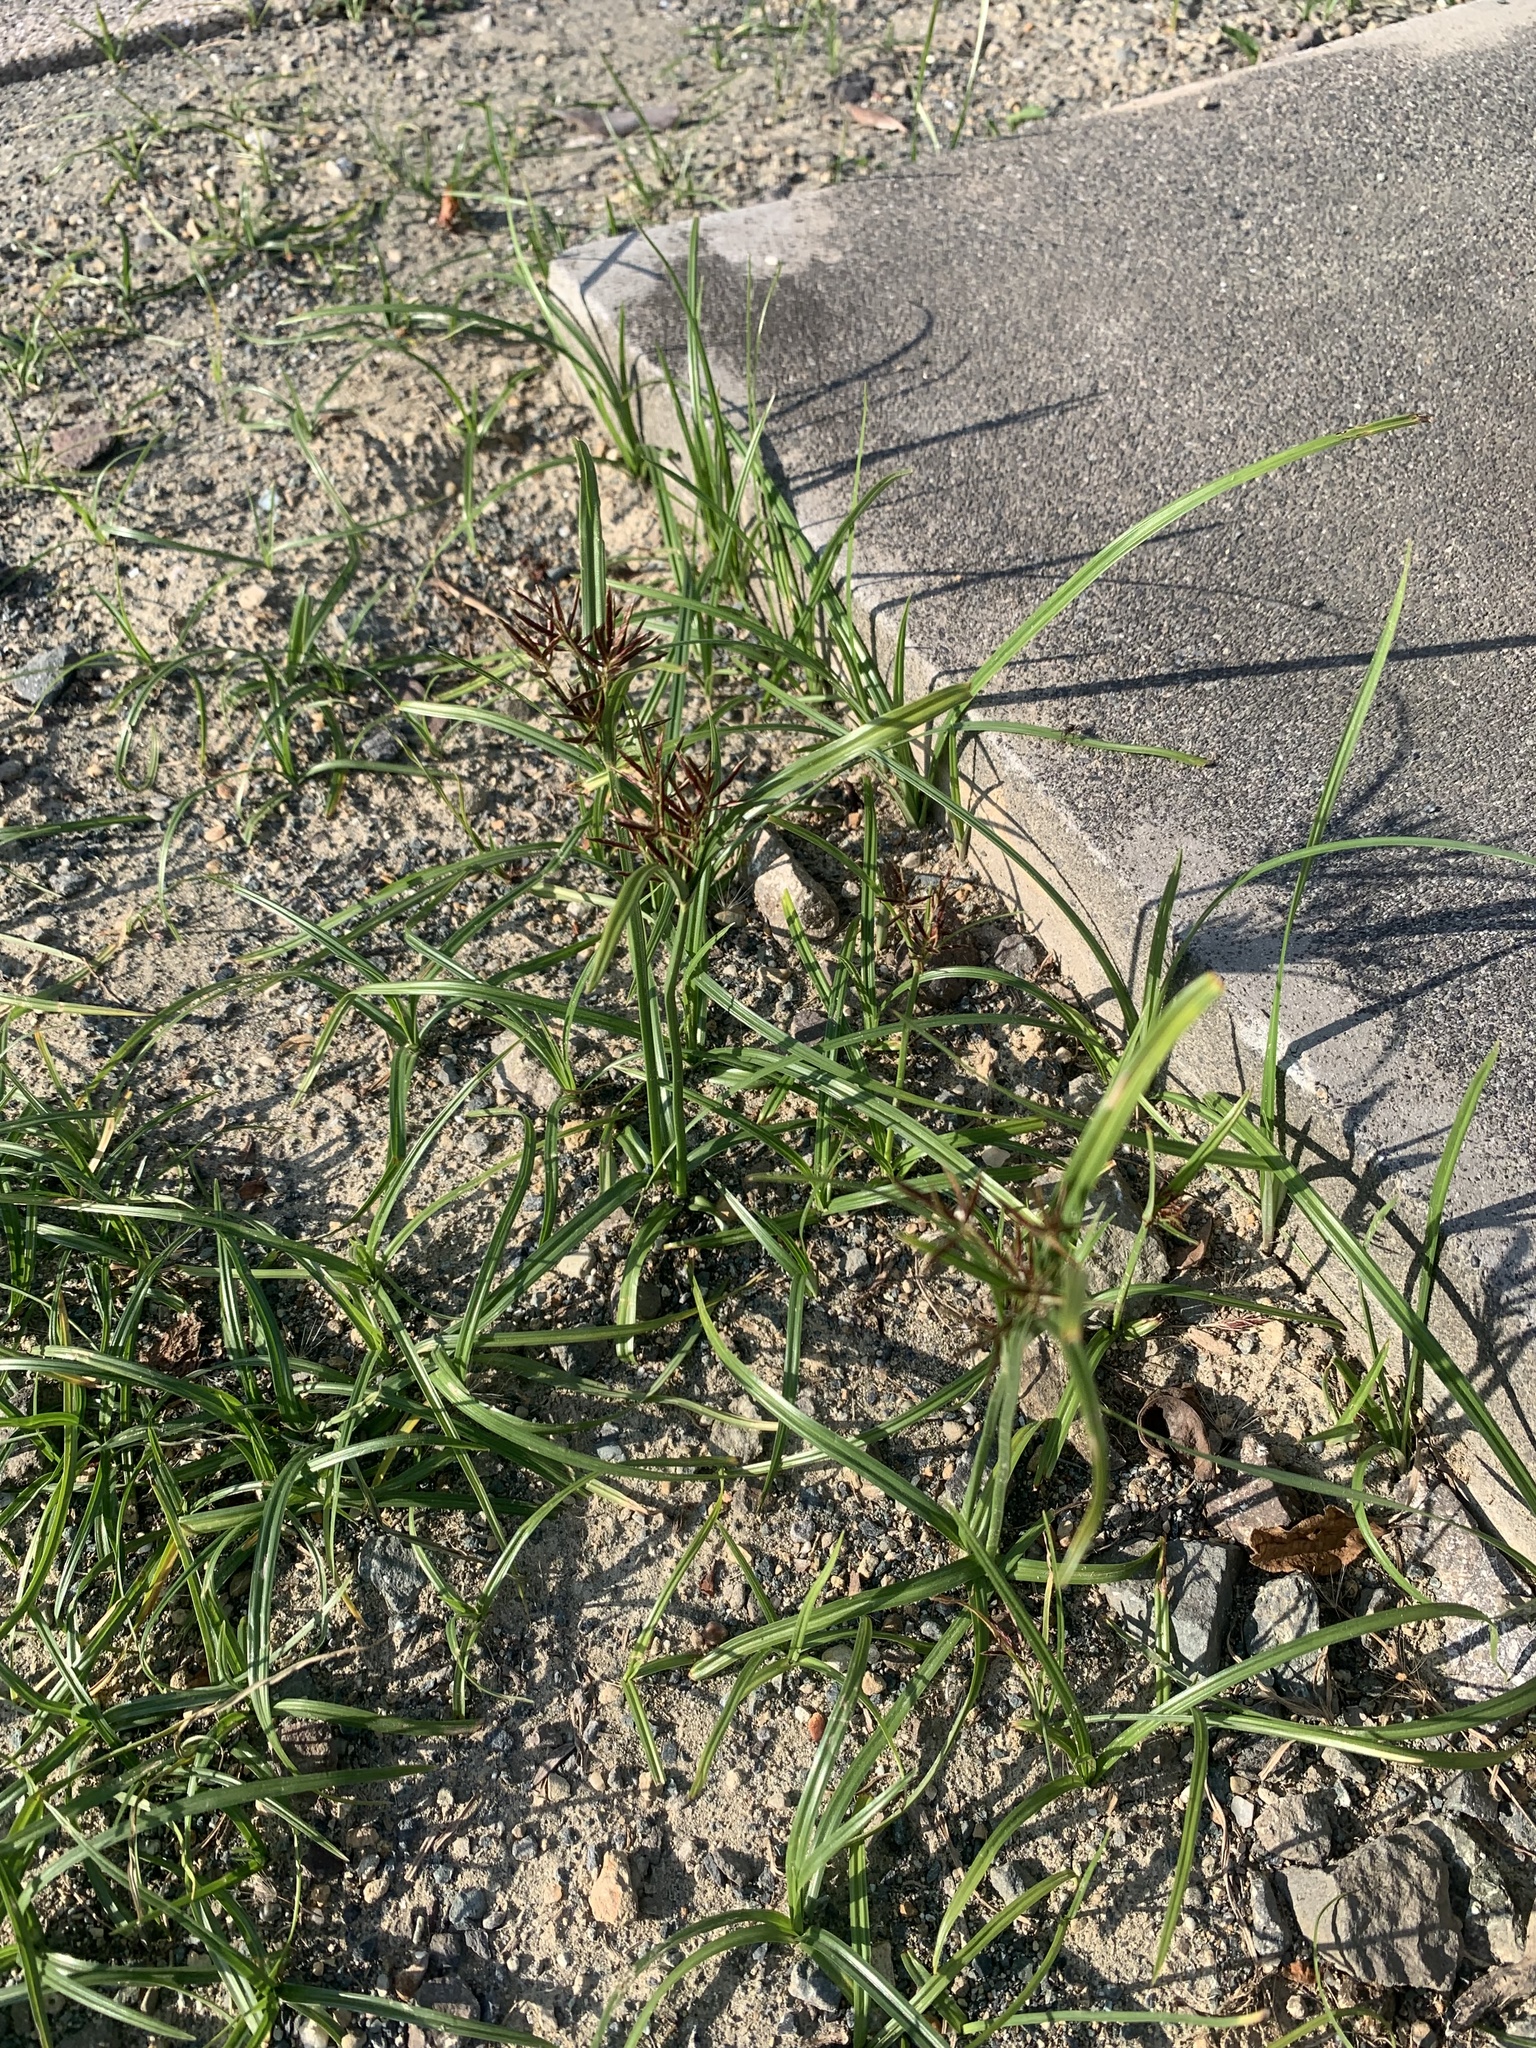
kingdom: Plantae
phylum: Tracheophyta
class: Liliopsida
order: Poales
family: Cyperaceae
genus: Cyperus
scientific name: Cyperus rotundus
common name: Nutgrass
